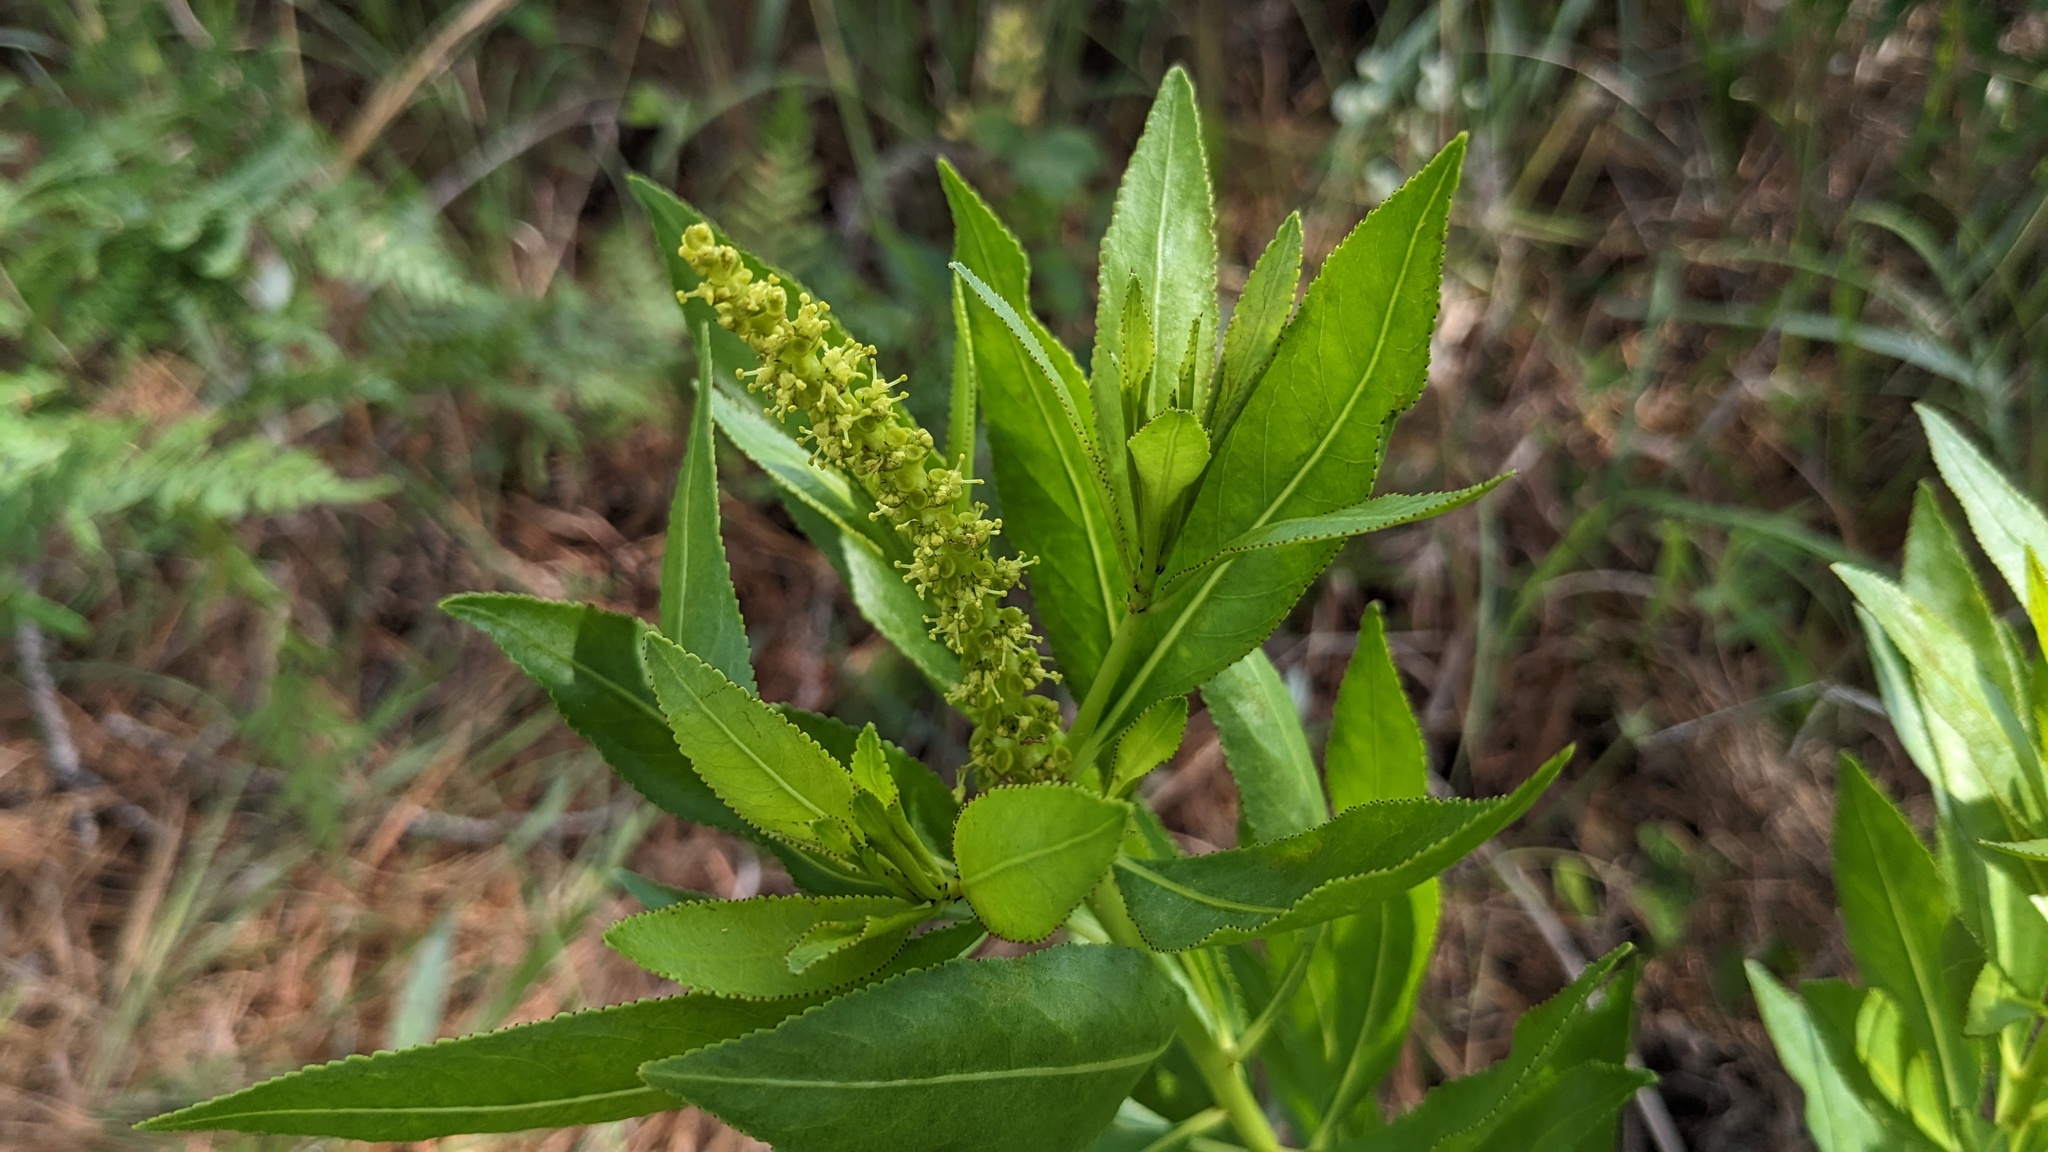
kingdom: Plantae
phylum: Tracheophyta
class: Magnoliopsida
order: Malpighiales
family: Euphorbiaceae
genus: Stillingia
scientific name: Stillingia sylvatica
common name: Queen's-delight
